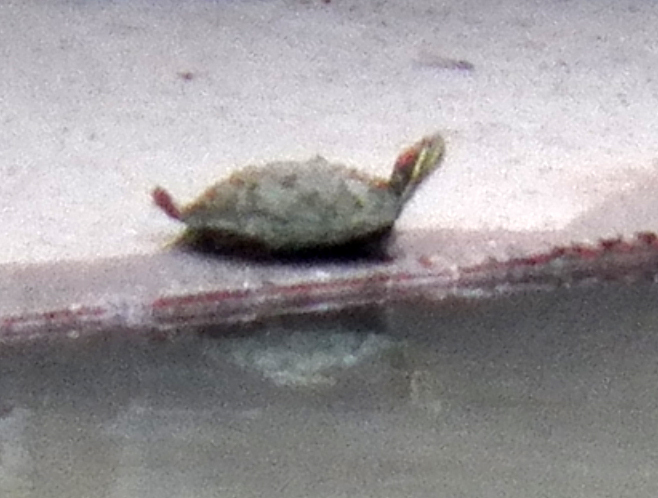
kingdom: Animalia
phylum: Chordata
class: Testudines
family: Emydidae
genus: Trachemys
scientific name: Trachemys scripta
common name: Slider
